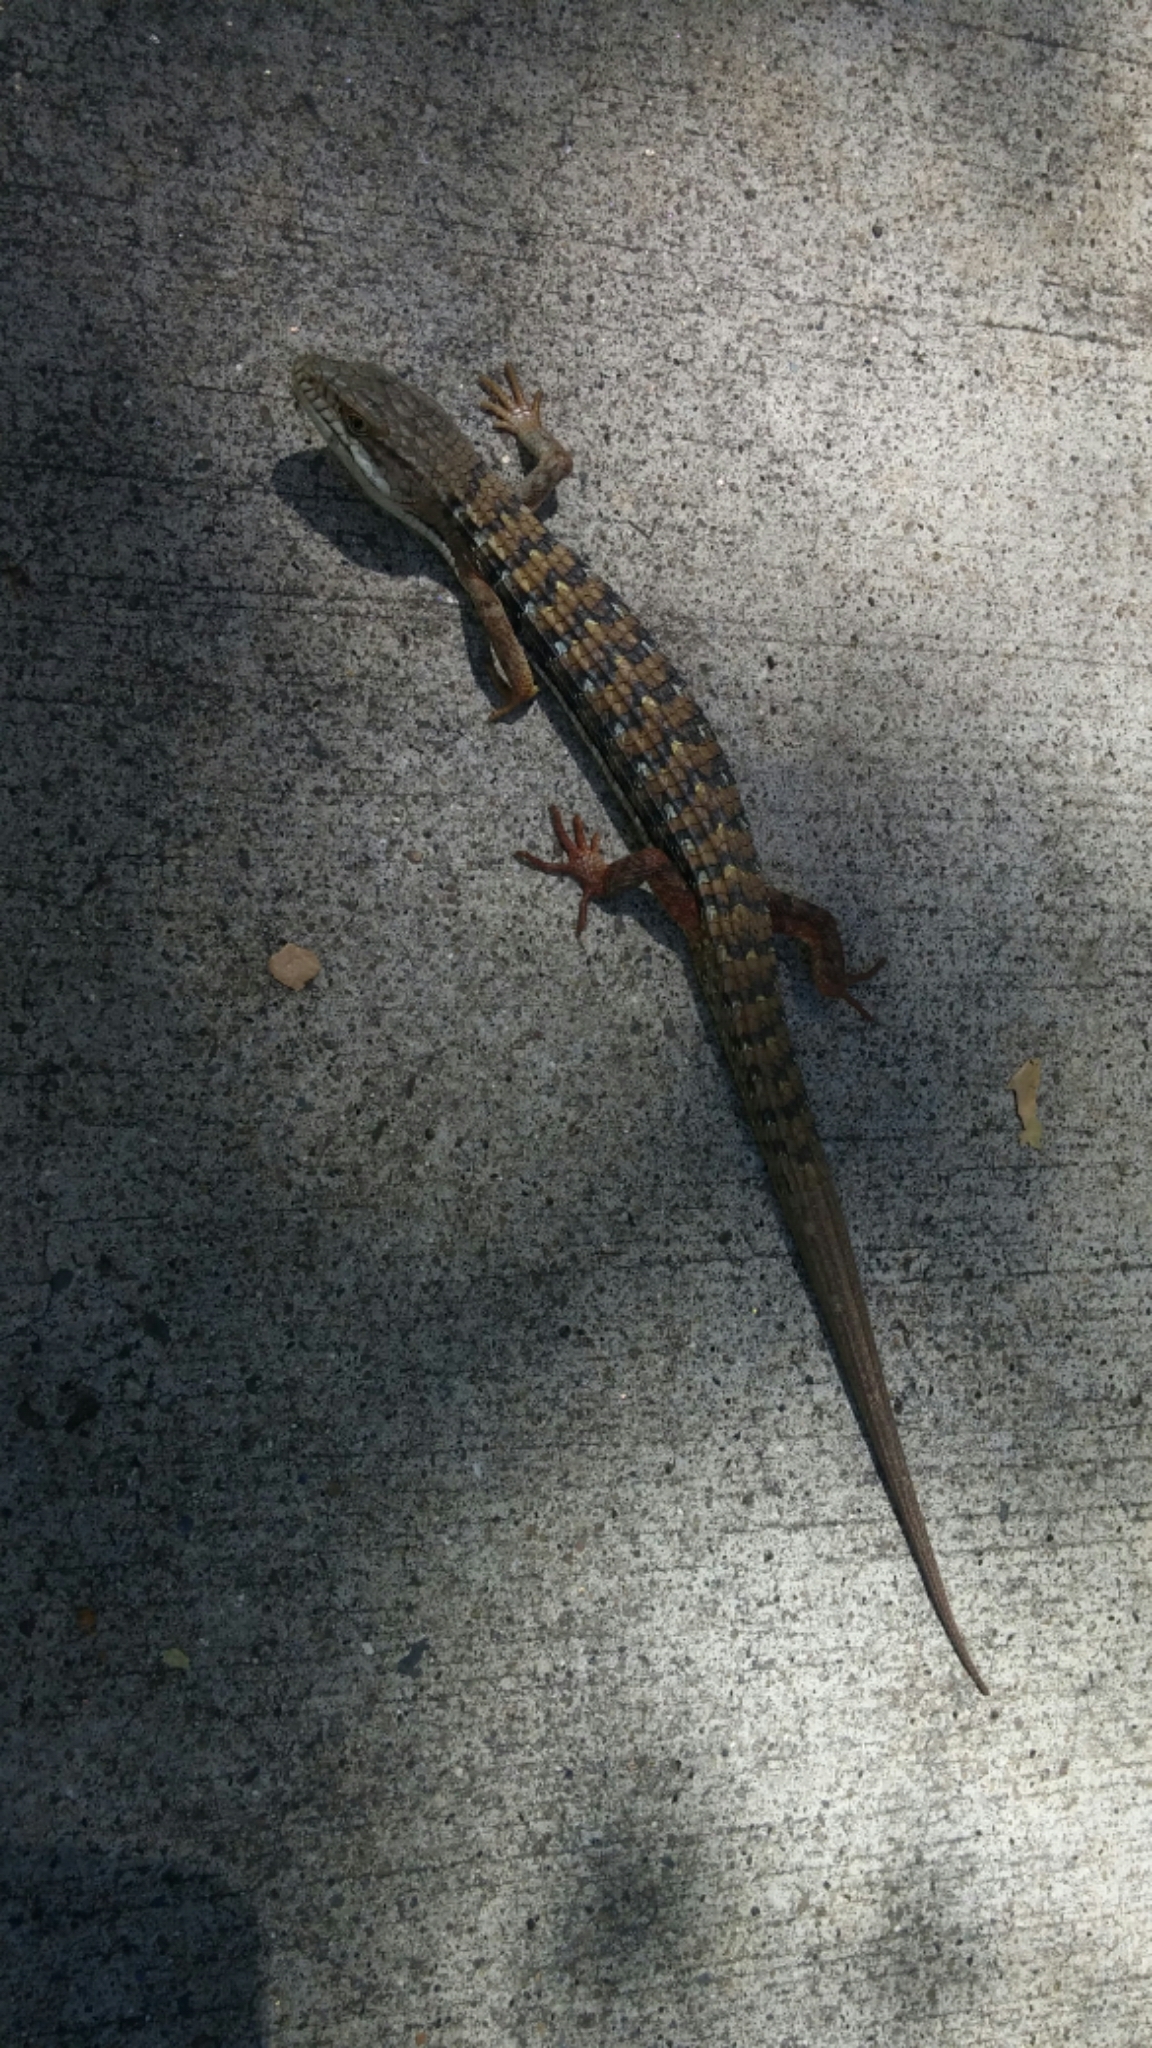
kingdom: Animalia
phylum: Chordata
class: Squamata
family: Anguidae
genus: Elgaria
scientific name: Elgaria multicarinata
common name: Southern alligator lizard
